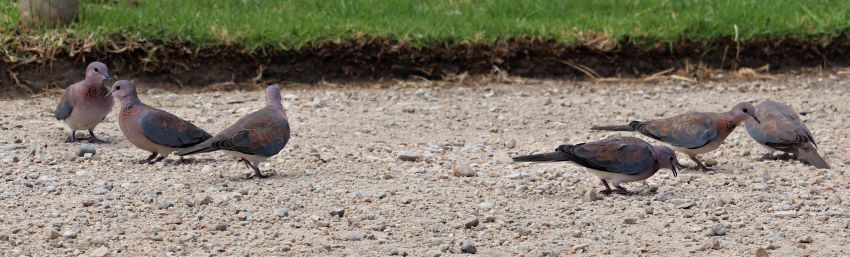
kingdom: Animalia
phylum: Chordata
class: Aves
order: Columbiformes
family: Columbidae
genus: Spilopelia
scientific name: Spilopelia senegalensis
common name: Laughing dove
